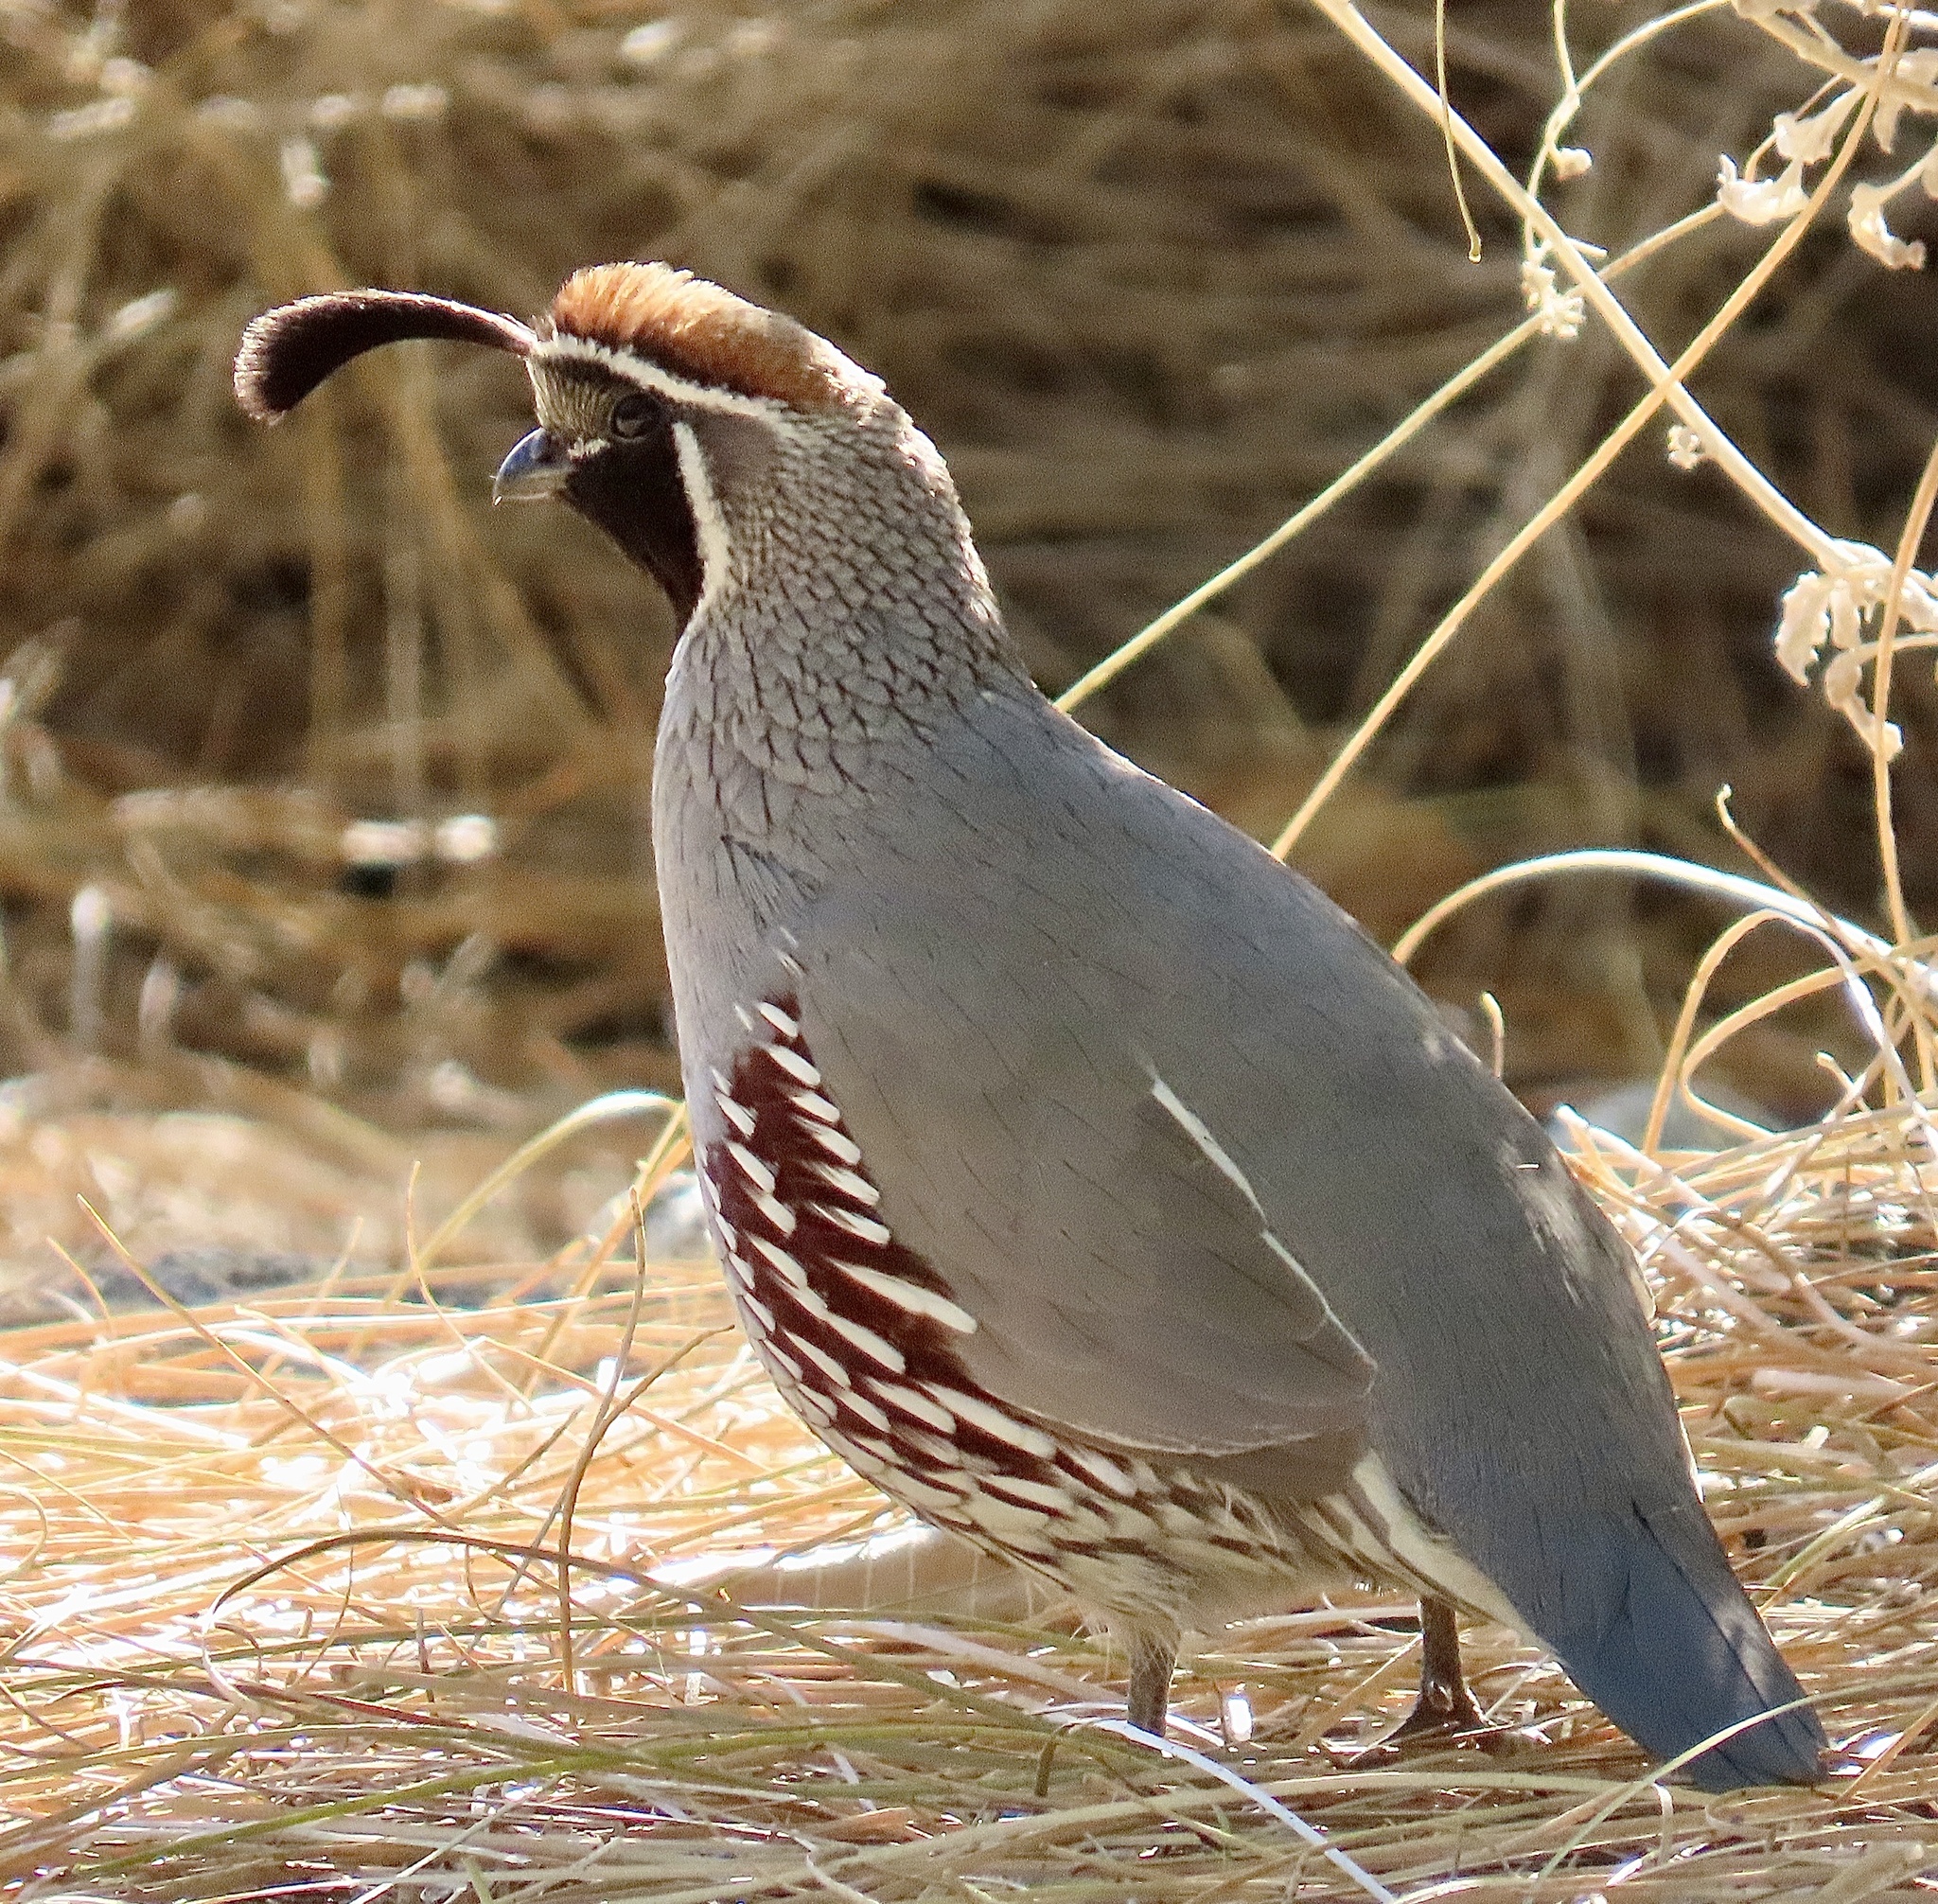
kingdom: Animalia
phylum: Chordata
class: Aves
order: Galliformes
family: Odontophoridae
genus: Callipepla
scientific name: Callipepla gambelii
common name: Gambel's quail
